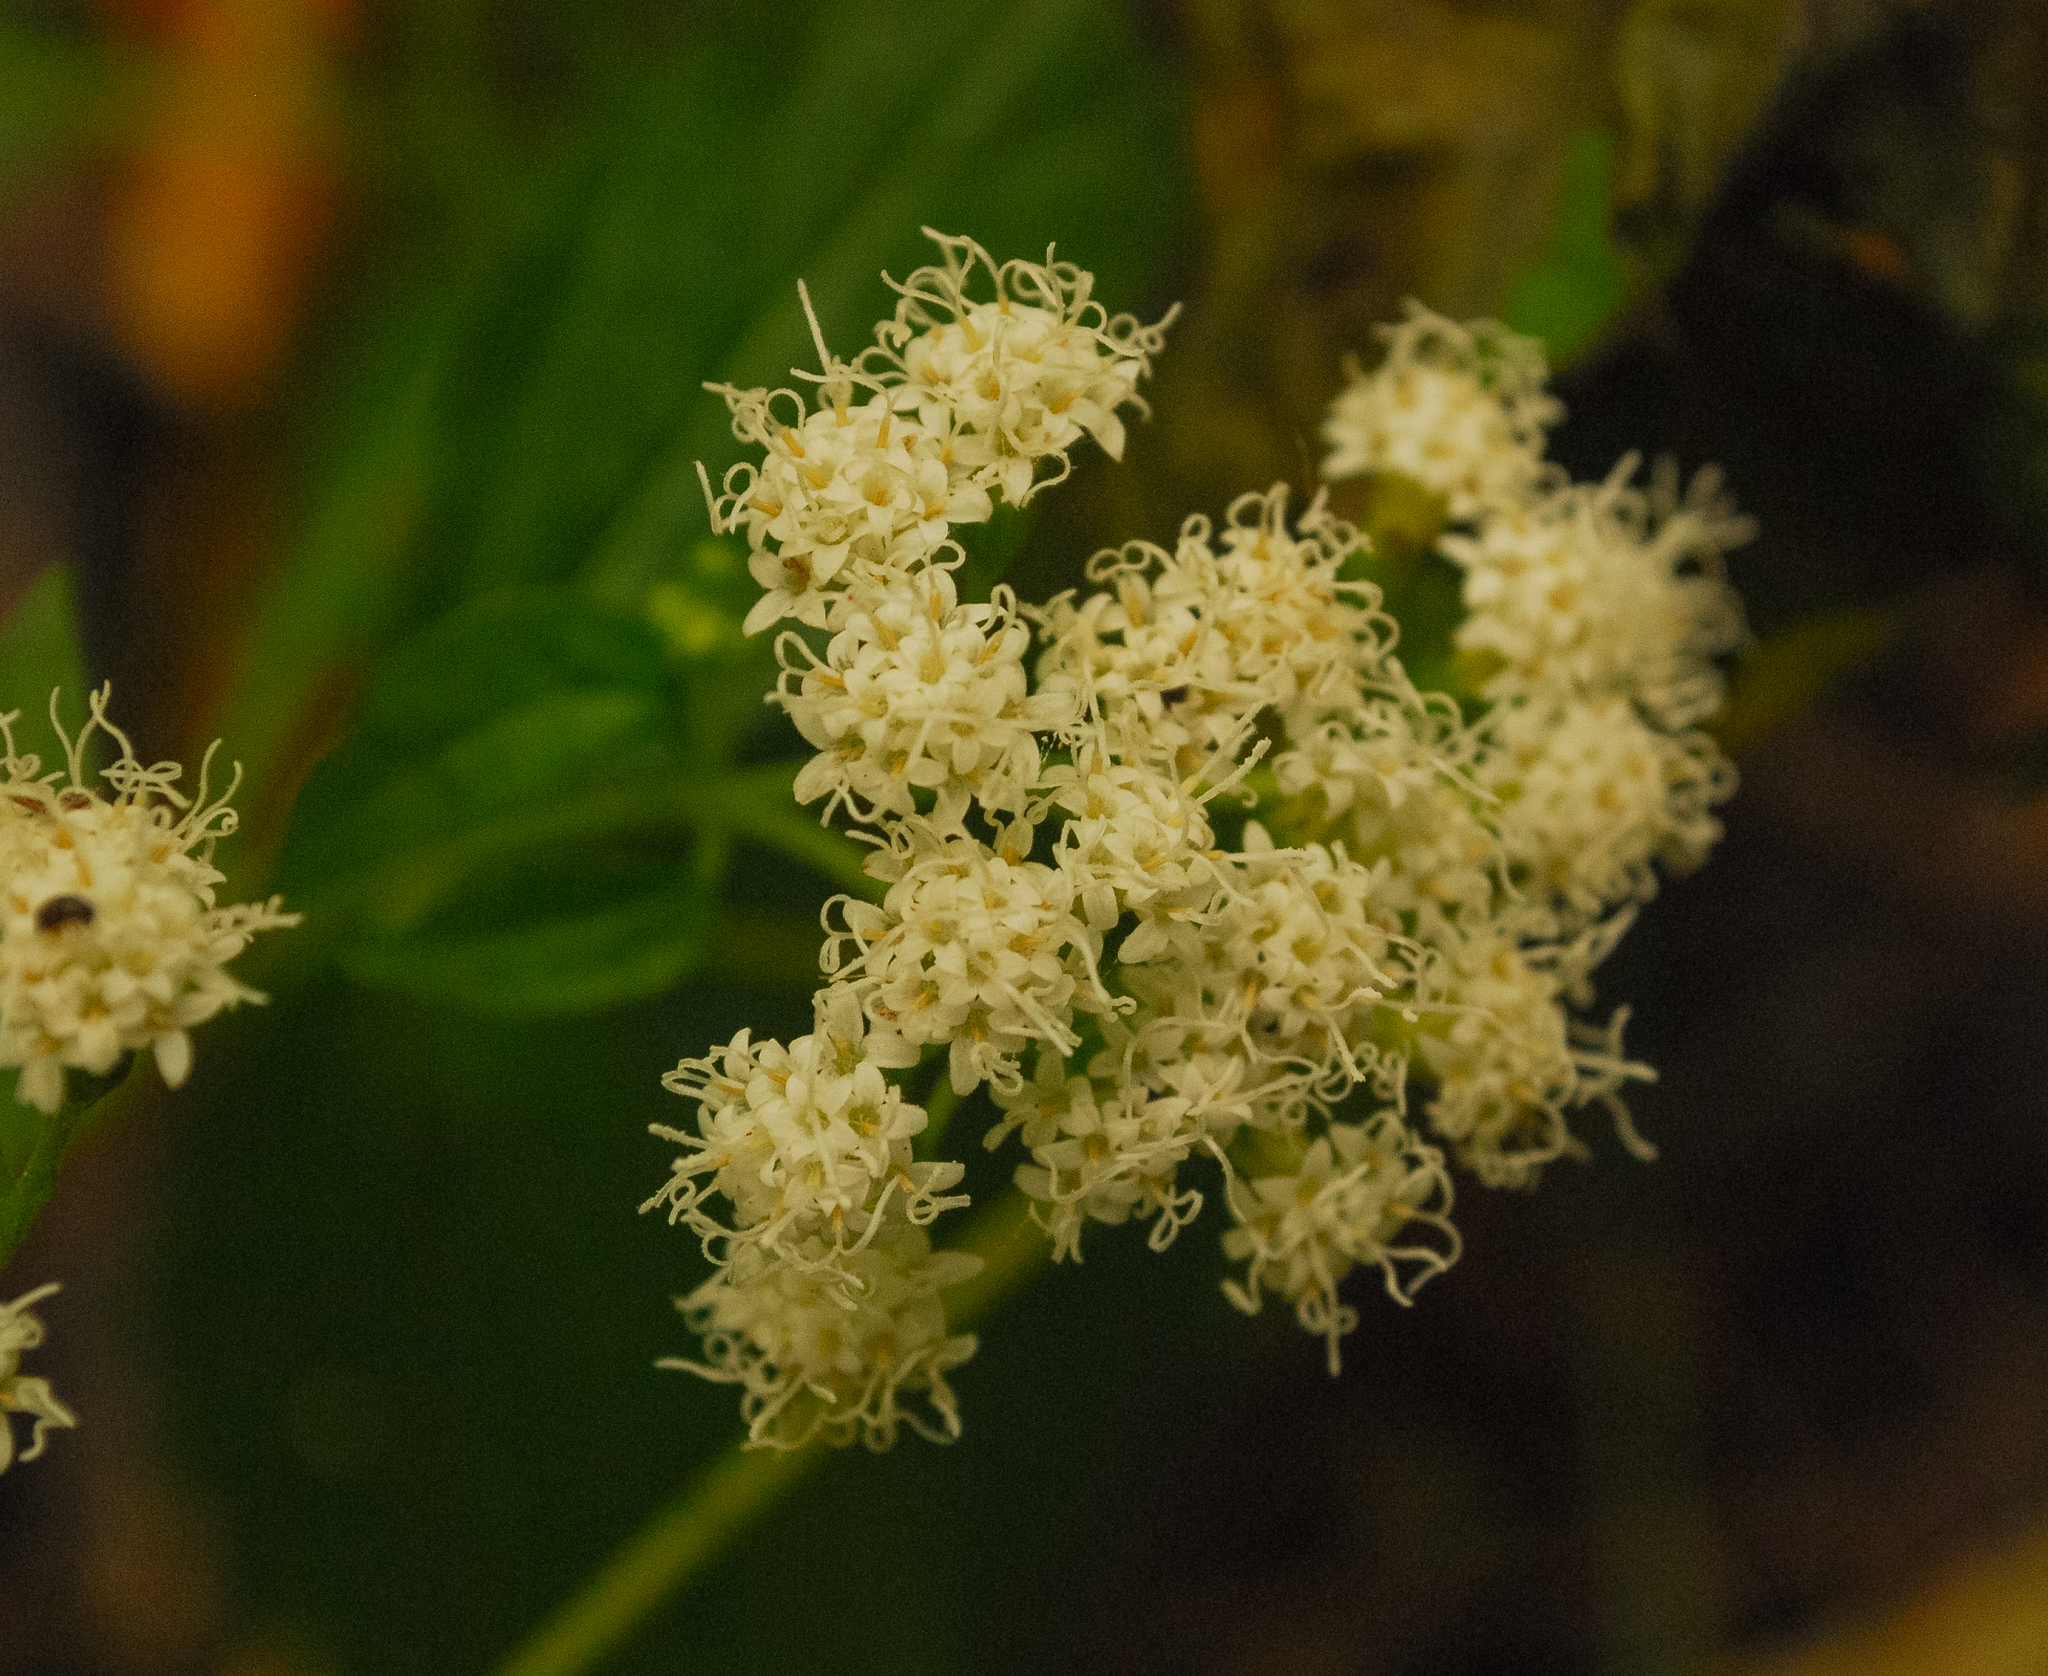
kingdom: Plantae
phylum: Tracheophyta
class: Magnoliopsida
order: Asterales
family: Asteraceae
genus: Ageratina
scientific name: Ageratina altissima
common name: White snakeroot
